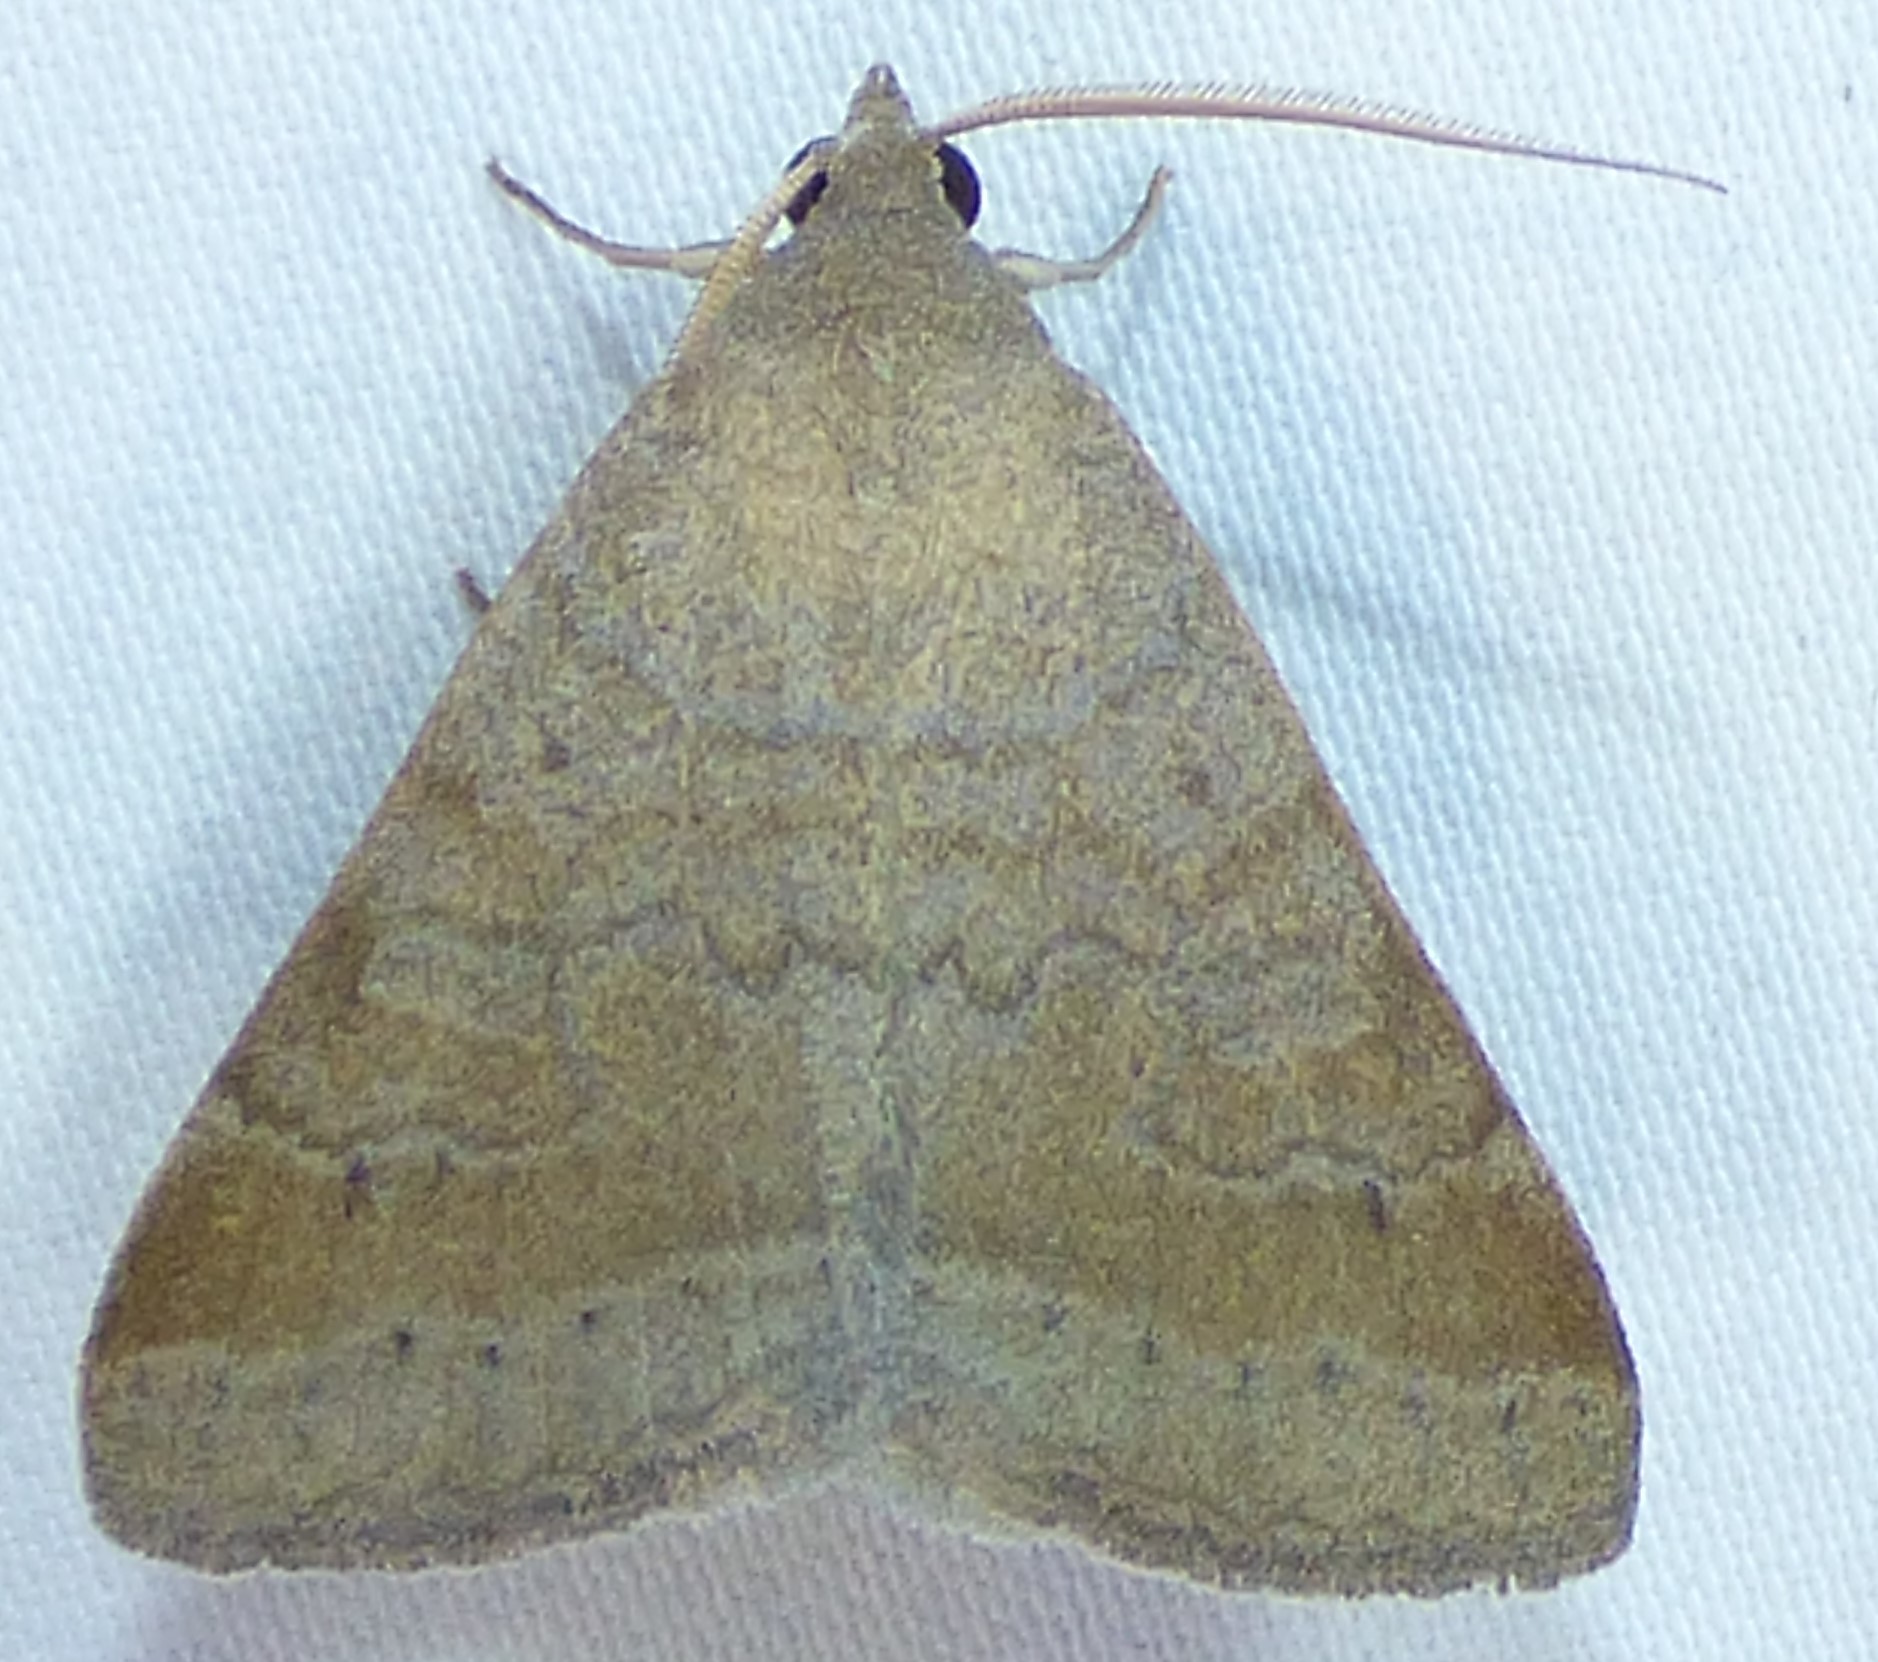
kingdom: Animalia
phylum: Arthropoda
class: Insecta
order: Lepidoptera
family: Erebidae
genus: Caenurgia
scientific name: Caenurgia chloropha
